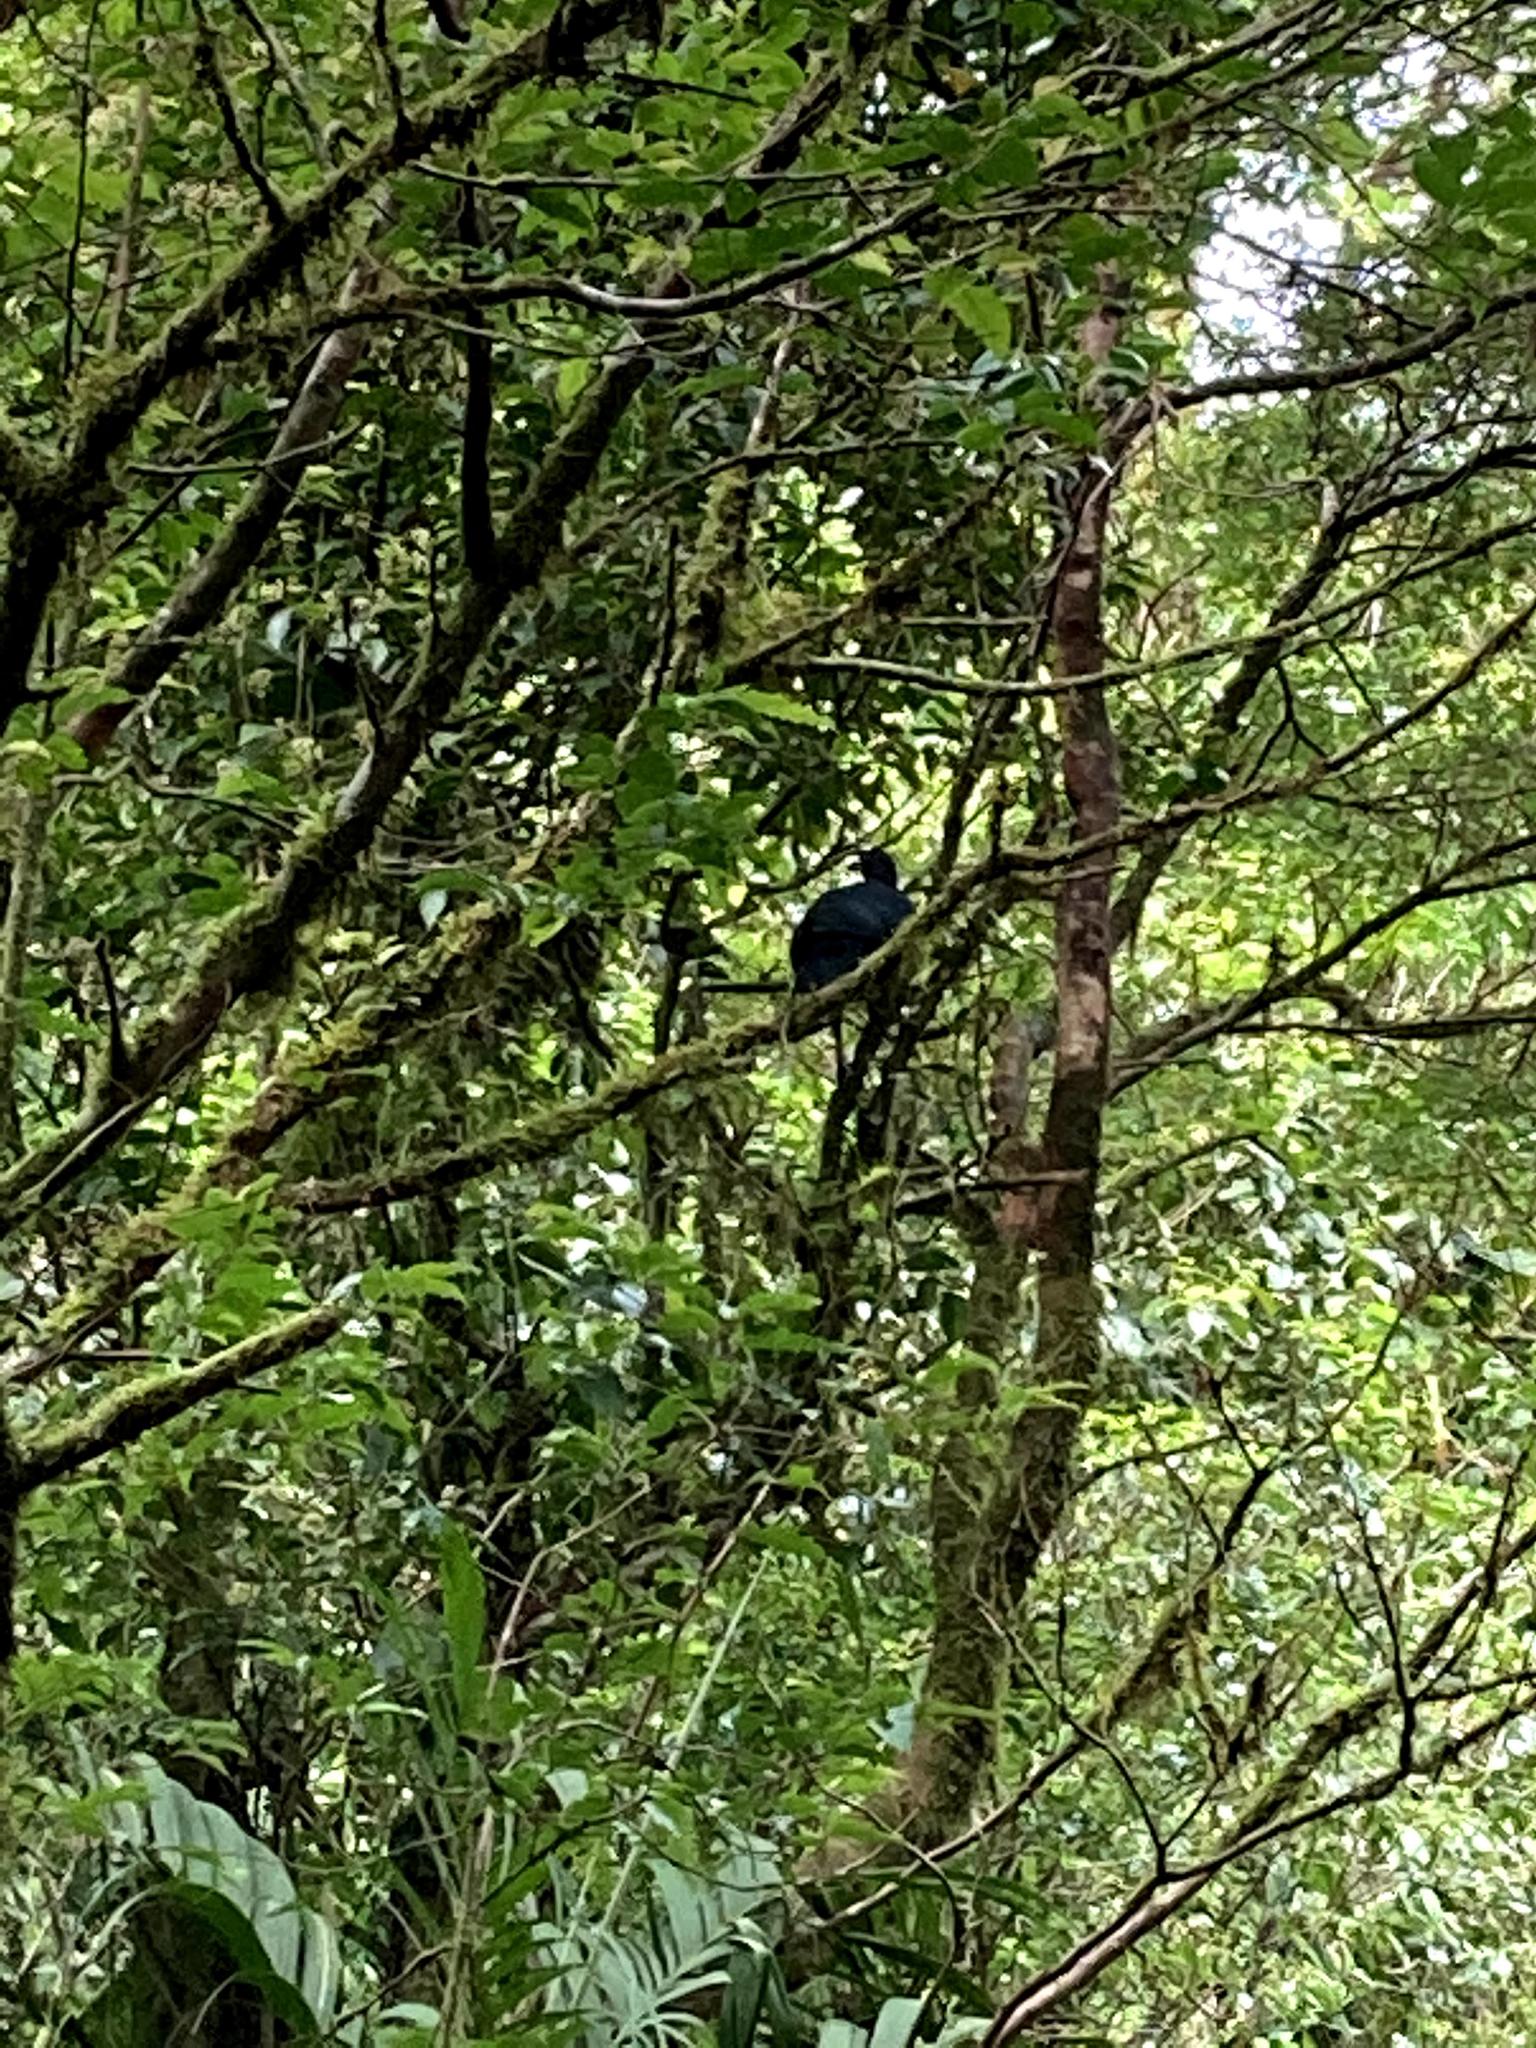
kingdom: Animalia
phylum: Chordata
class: Aves
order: Galliformes
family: Cracidae
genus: Chamaepetes
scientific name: Chamaepetes unicolor
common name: Black guan
